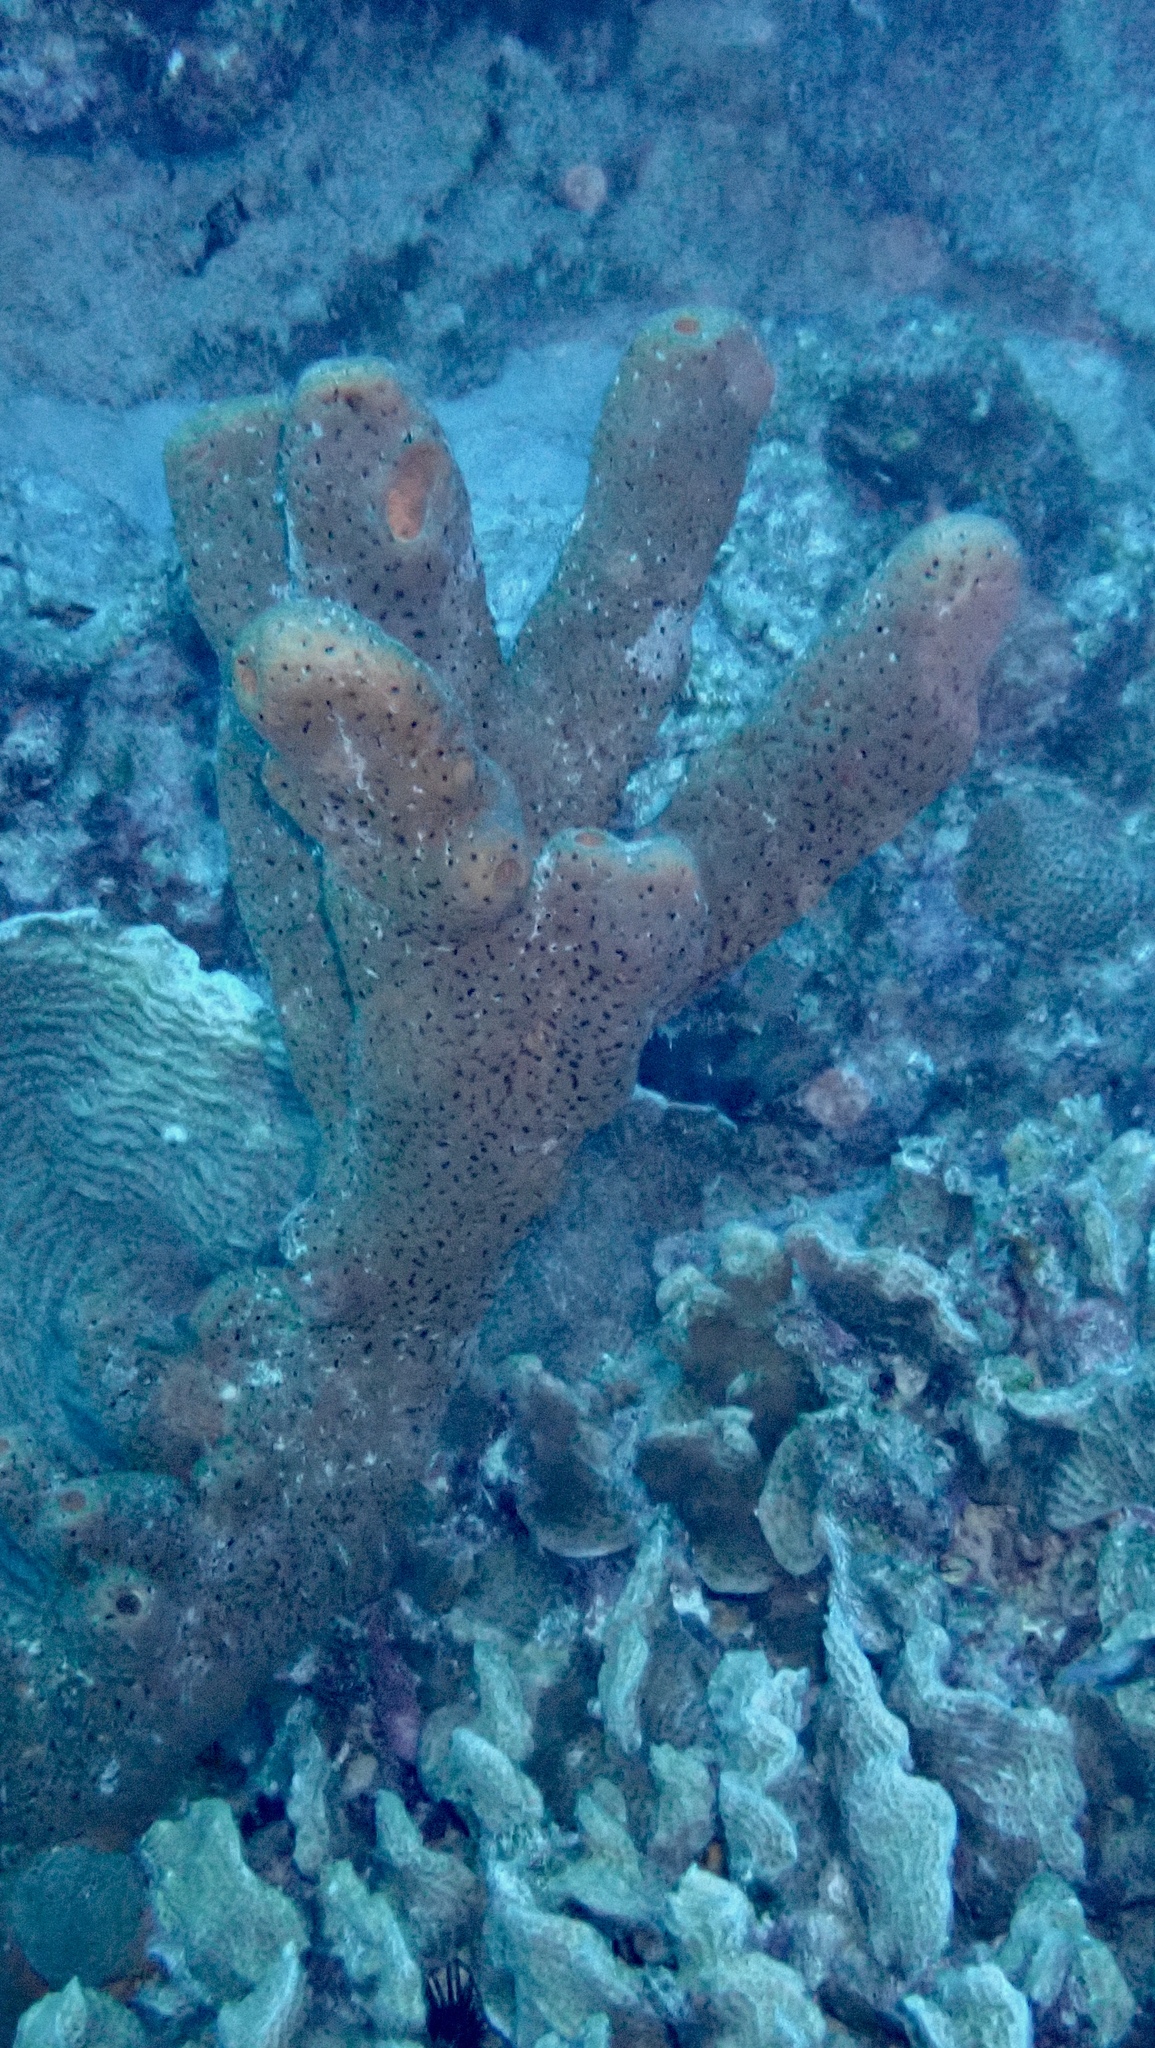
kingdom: Animalia
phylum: Porifera
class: Demospongiae
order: Agelasida
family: Agelasidae
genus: Agelas
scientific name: Agelas conifera
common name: Brown tube sponge
